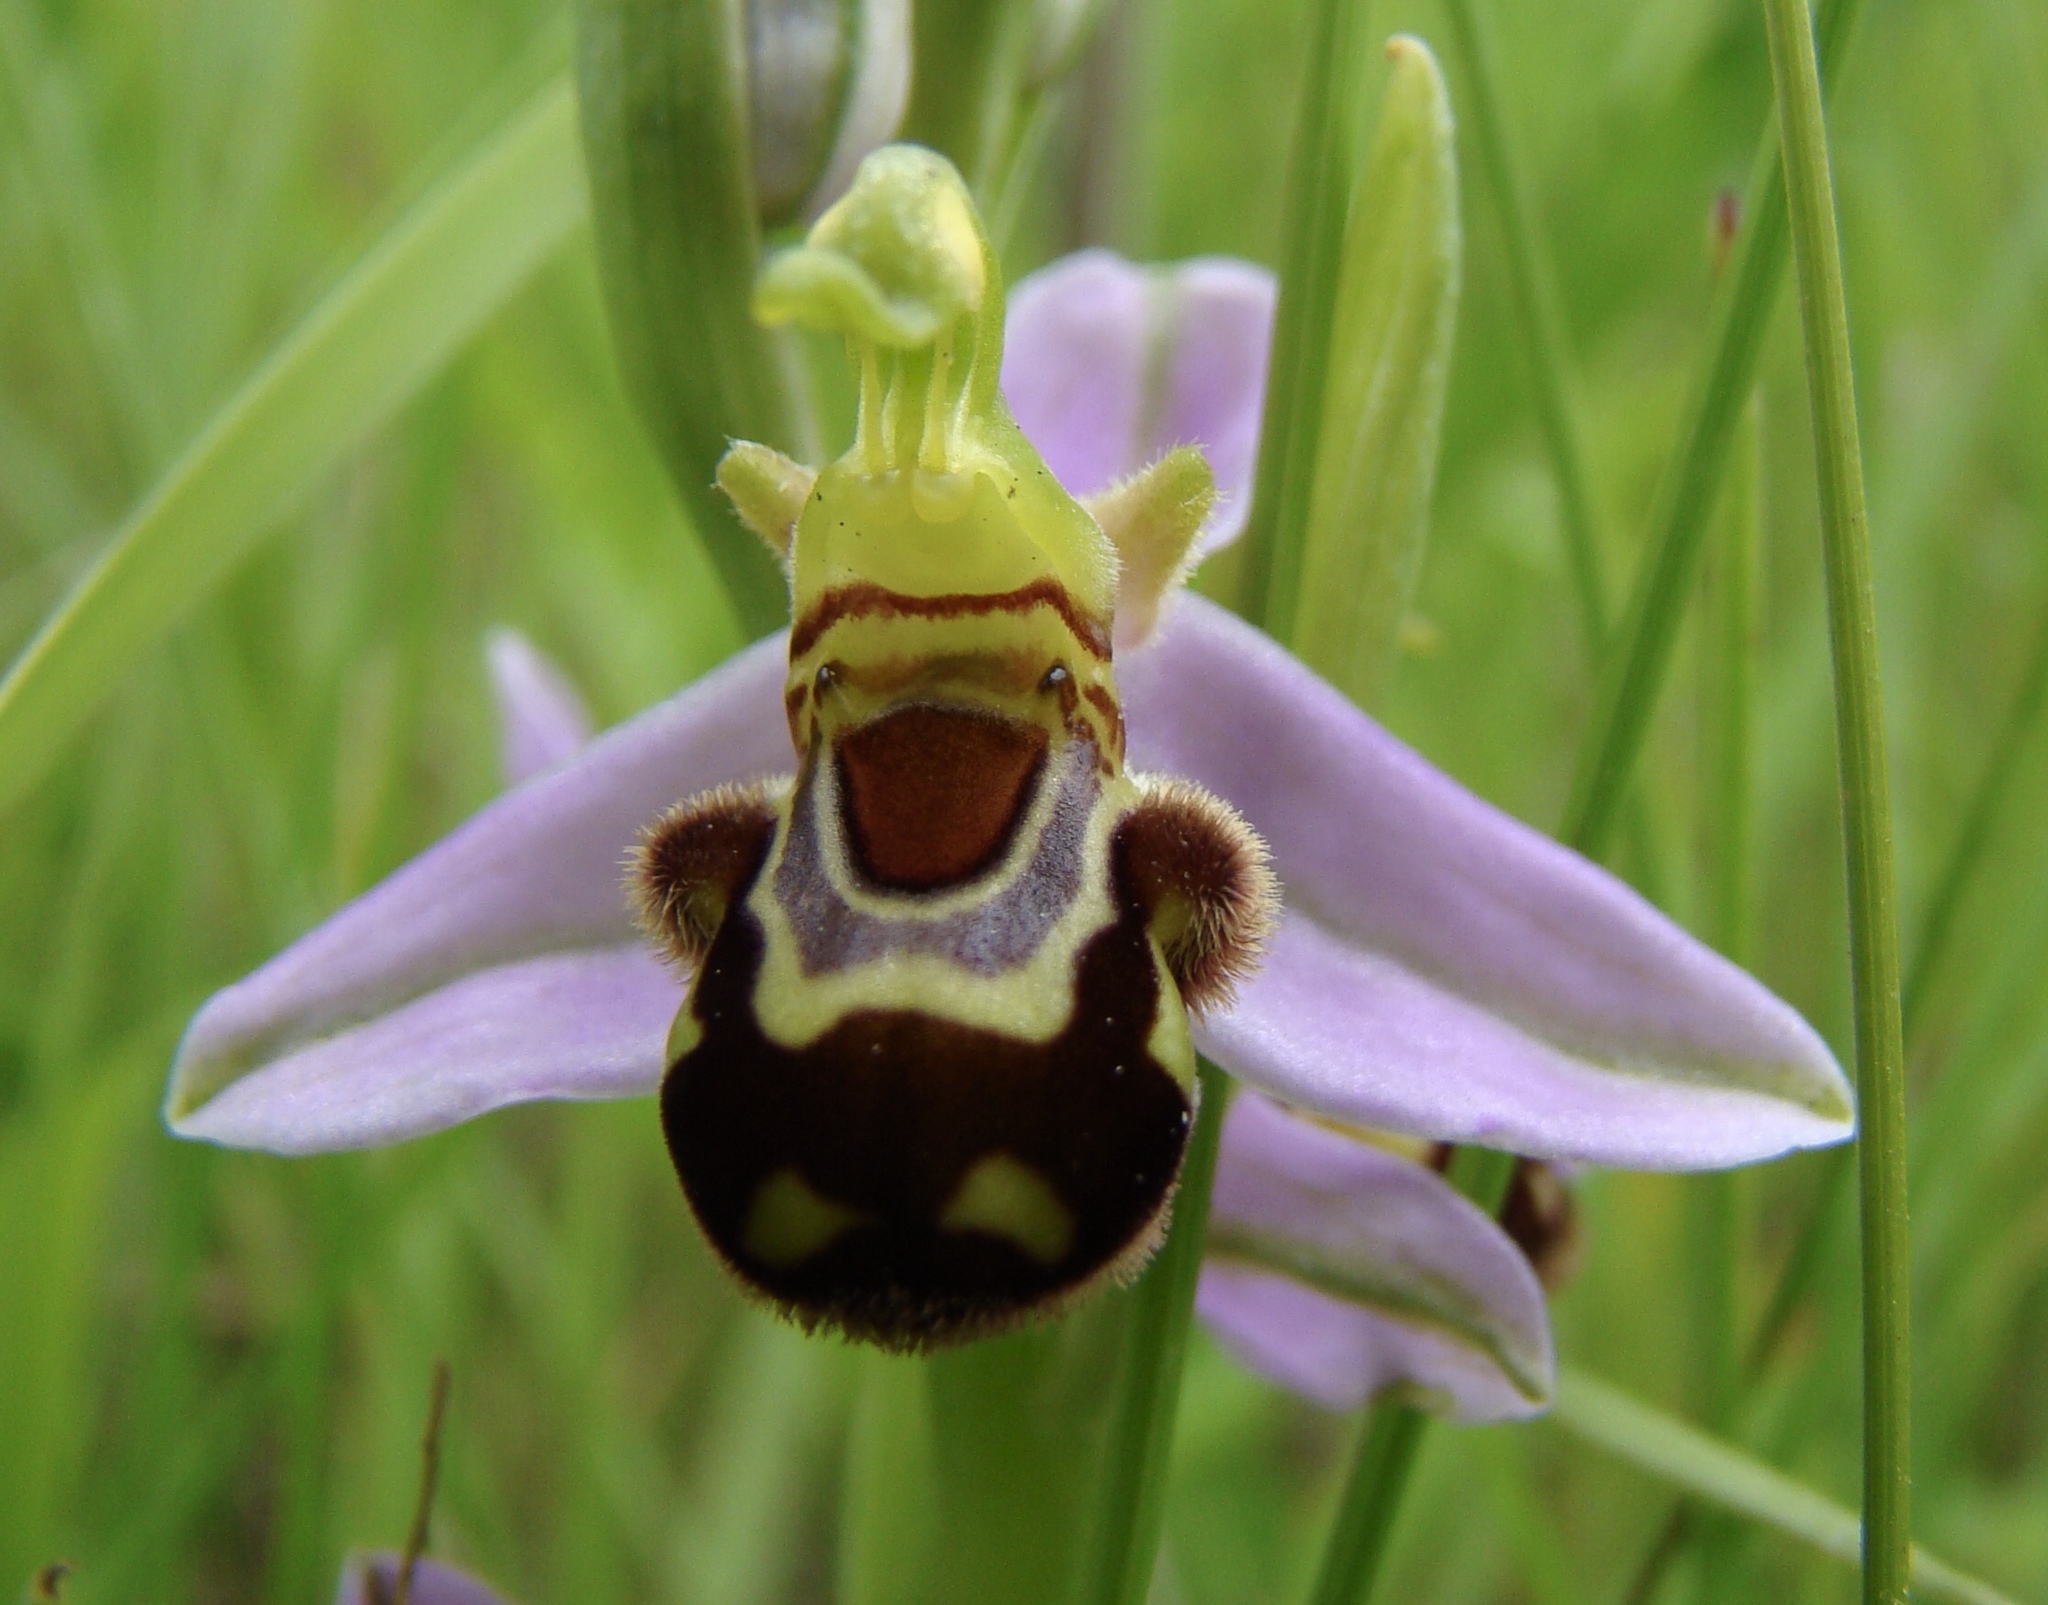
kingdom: Plantae
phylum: Tracheophyta
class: Liliopsida
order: Asparagales
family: Orchidaceae
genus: Ophrys
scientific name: Ophrys apifera
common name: Bee orchid
